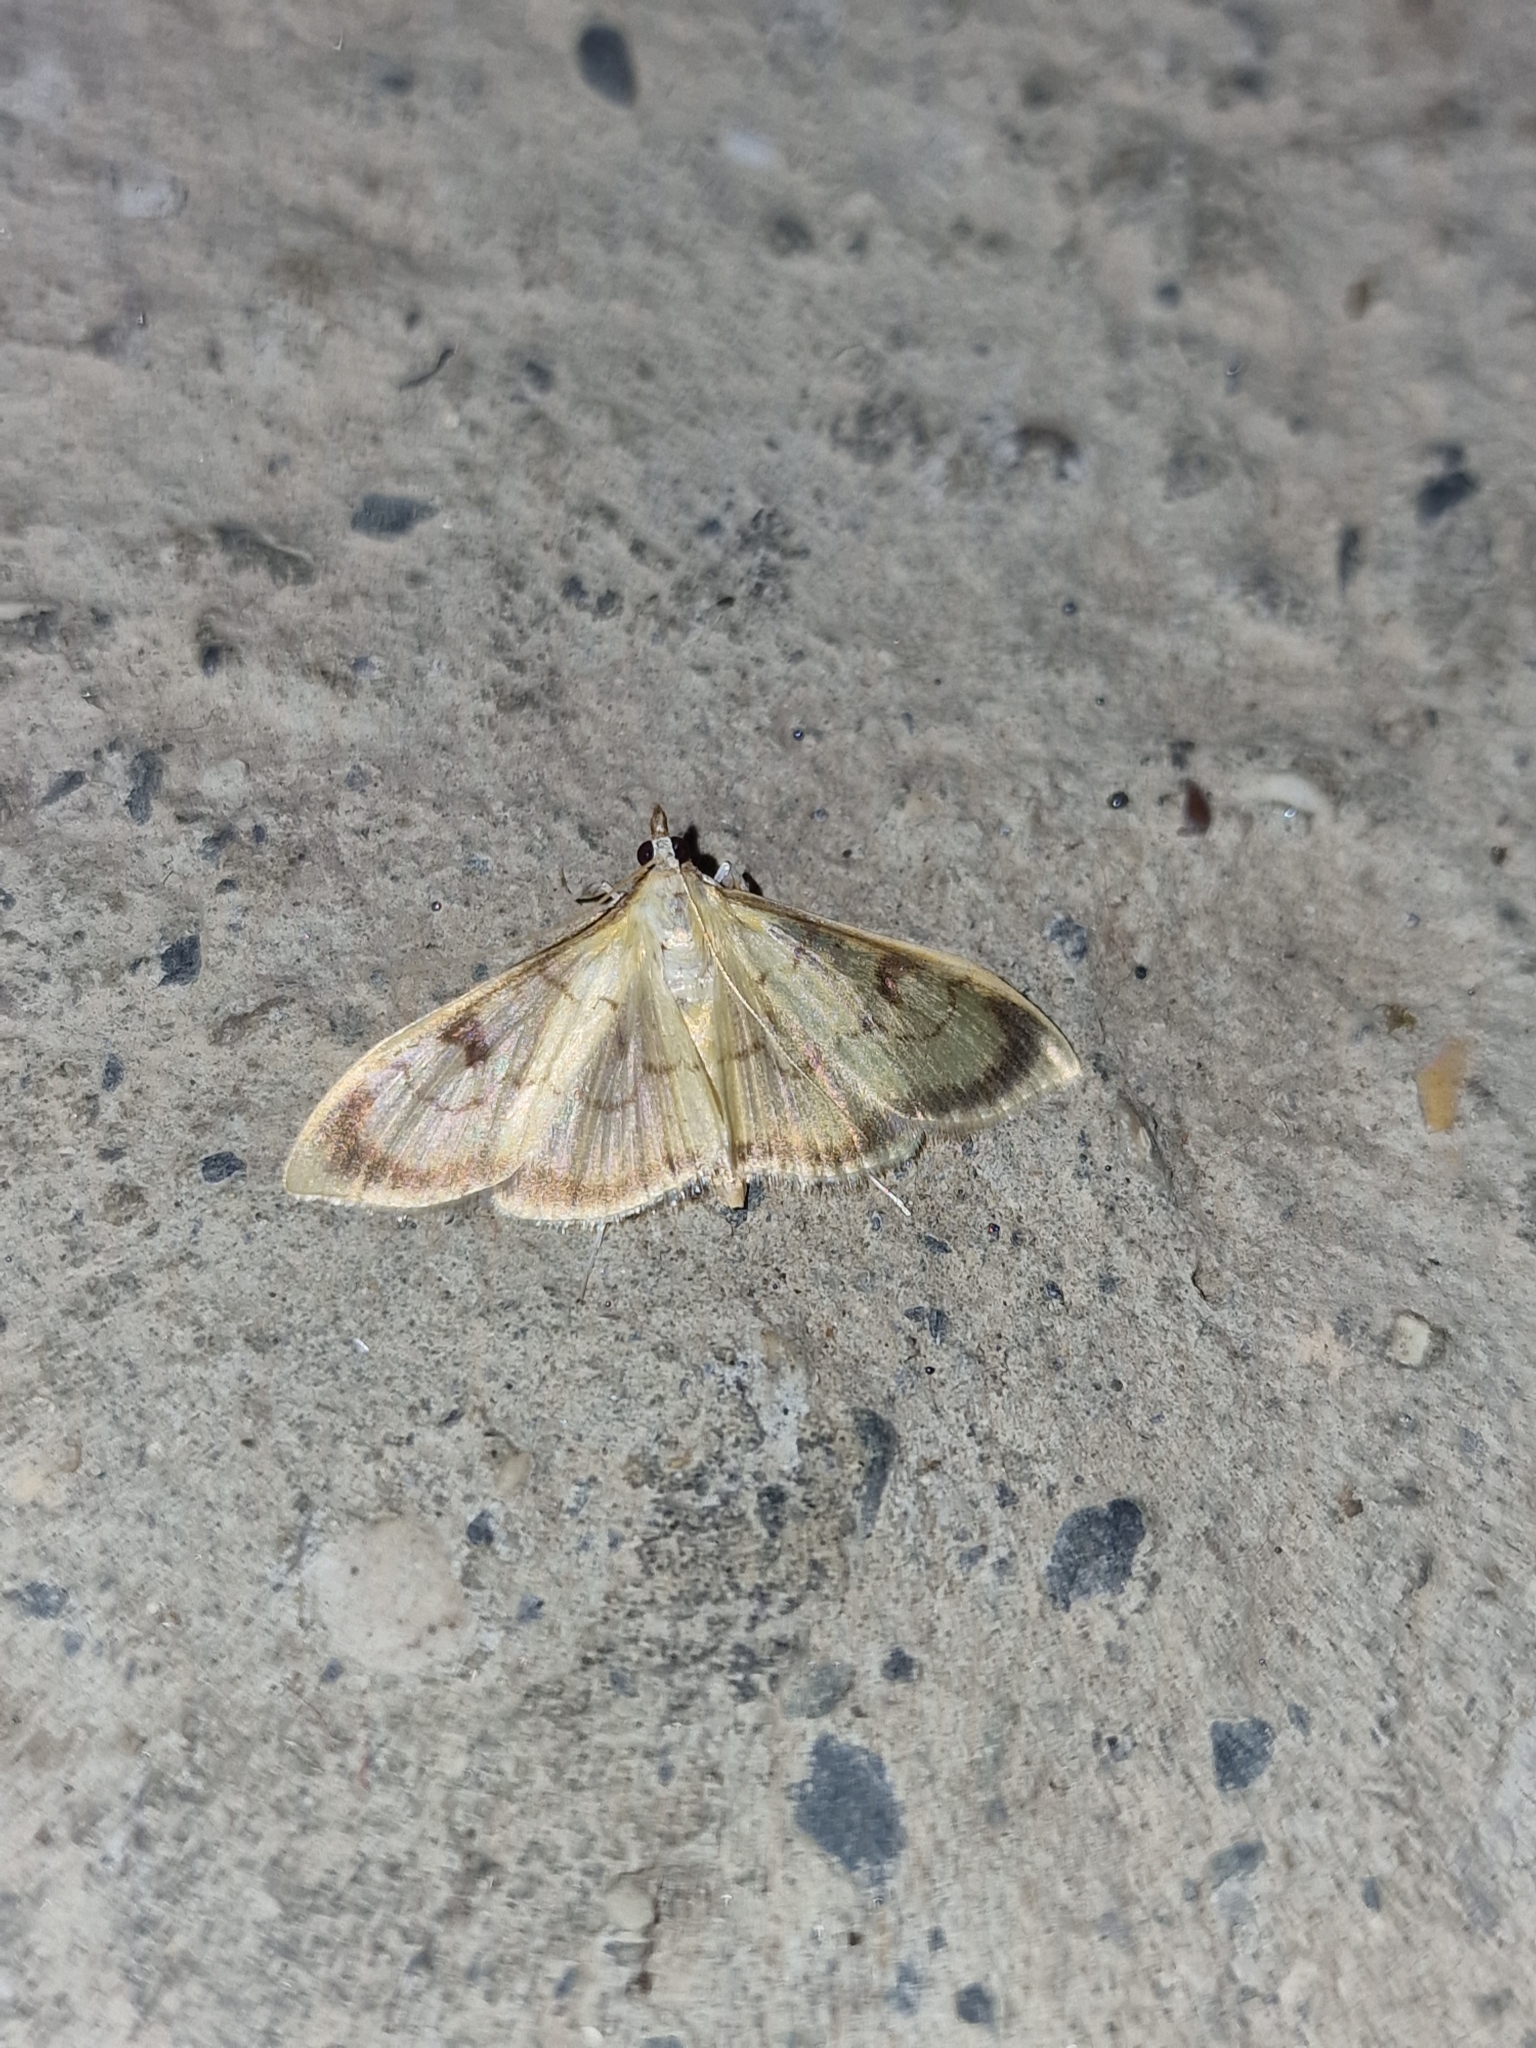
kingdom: Animalia
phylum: Arthropoda
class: Insecta
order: Lepidoptera
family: Crambidae
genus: Paratalanta
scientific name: Paratalanta ussurialis
